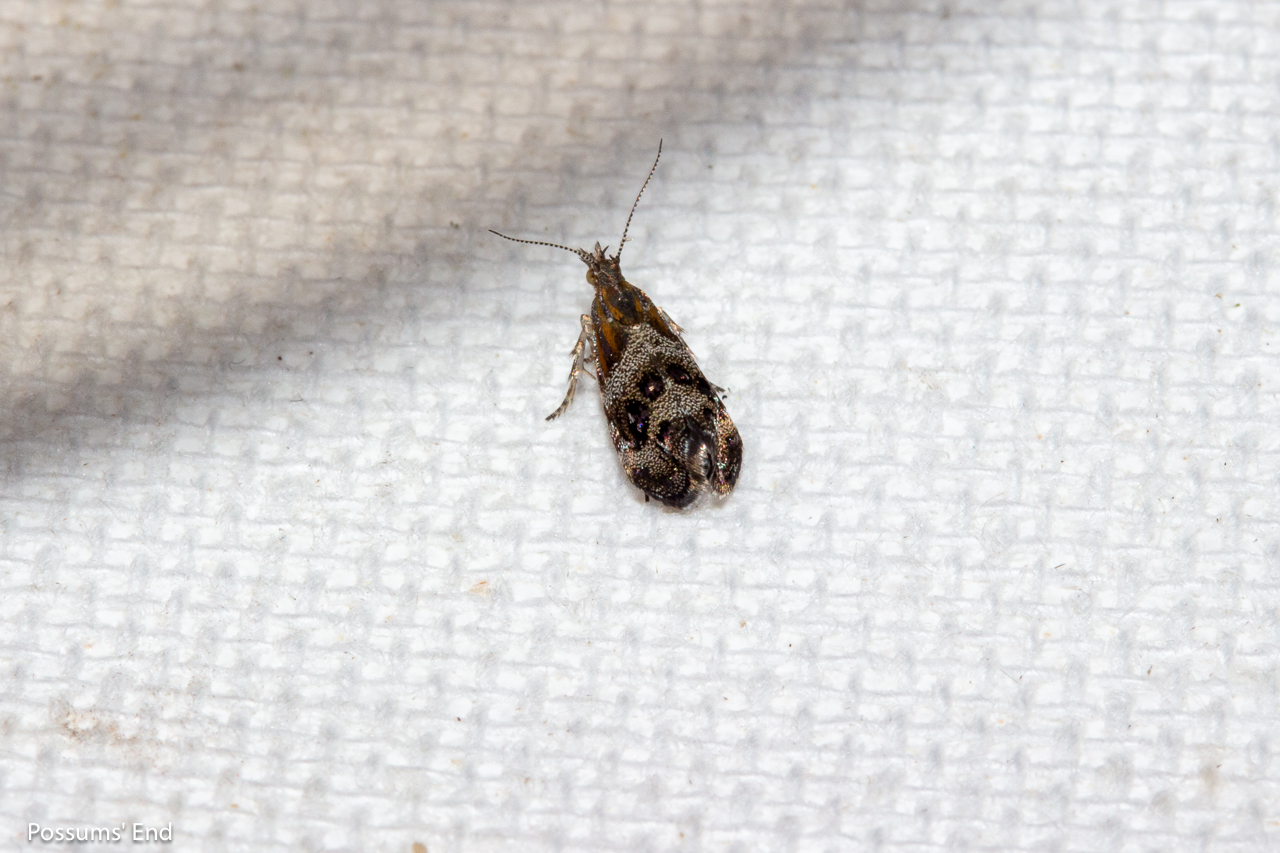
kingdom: Animalia
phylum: Arthropoda
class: Insecta
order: Lepidoptera
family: Choreutidae
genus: Tebenna
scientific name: Tebenna micalis
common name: Vagrant twitcher
